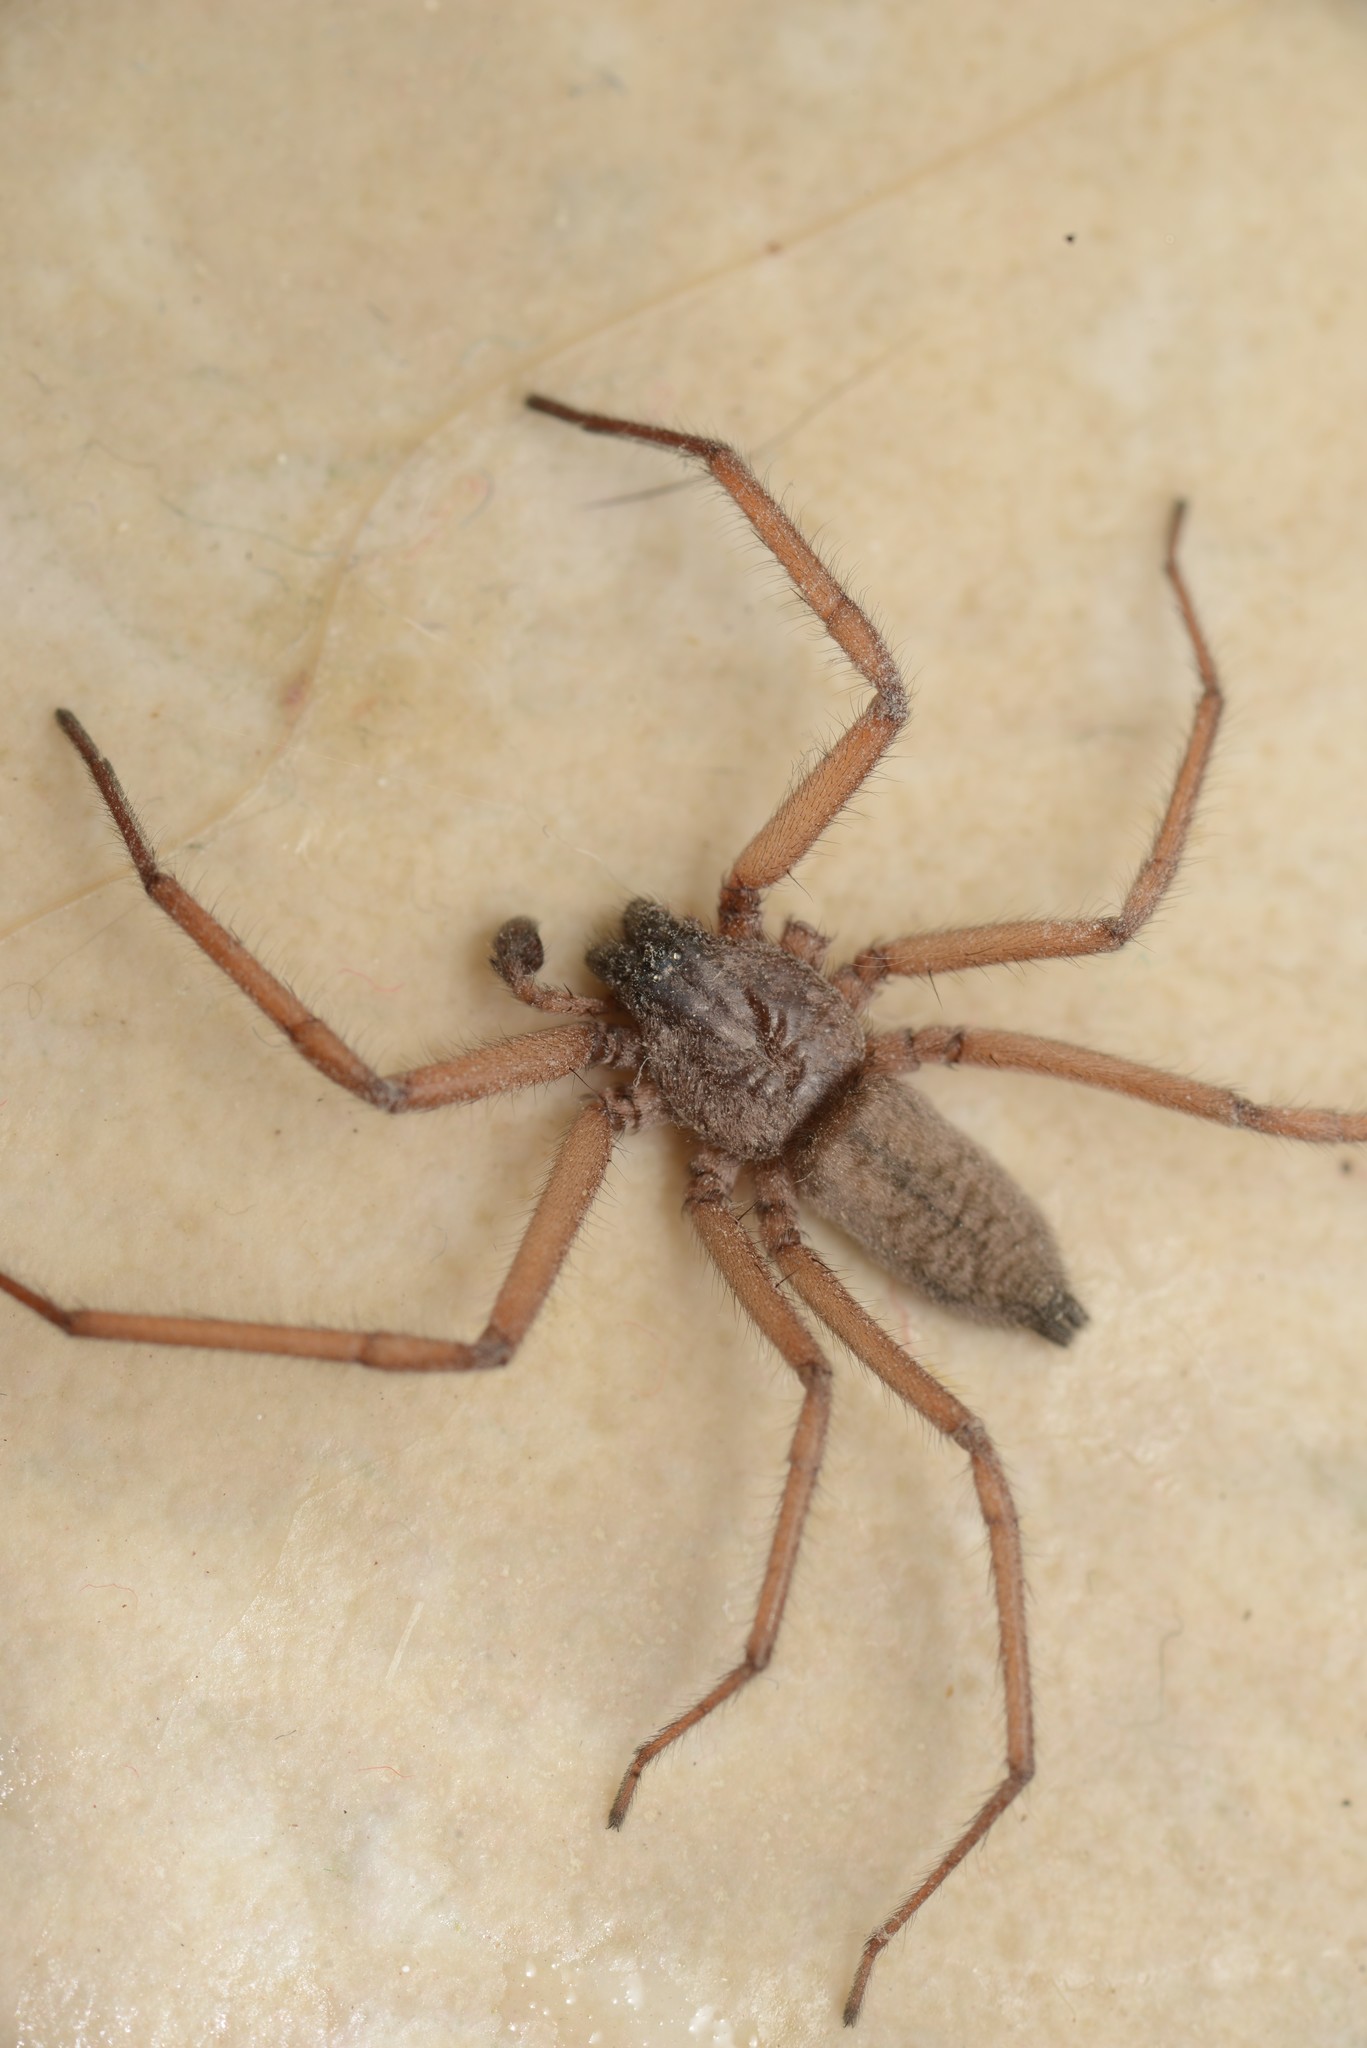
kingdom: Animalia
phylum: Arthropoda
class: Arachnida
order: Araneae
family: Trochanteriidae
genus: Hemicloea
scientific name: Hemicloea rogenhoferi
